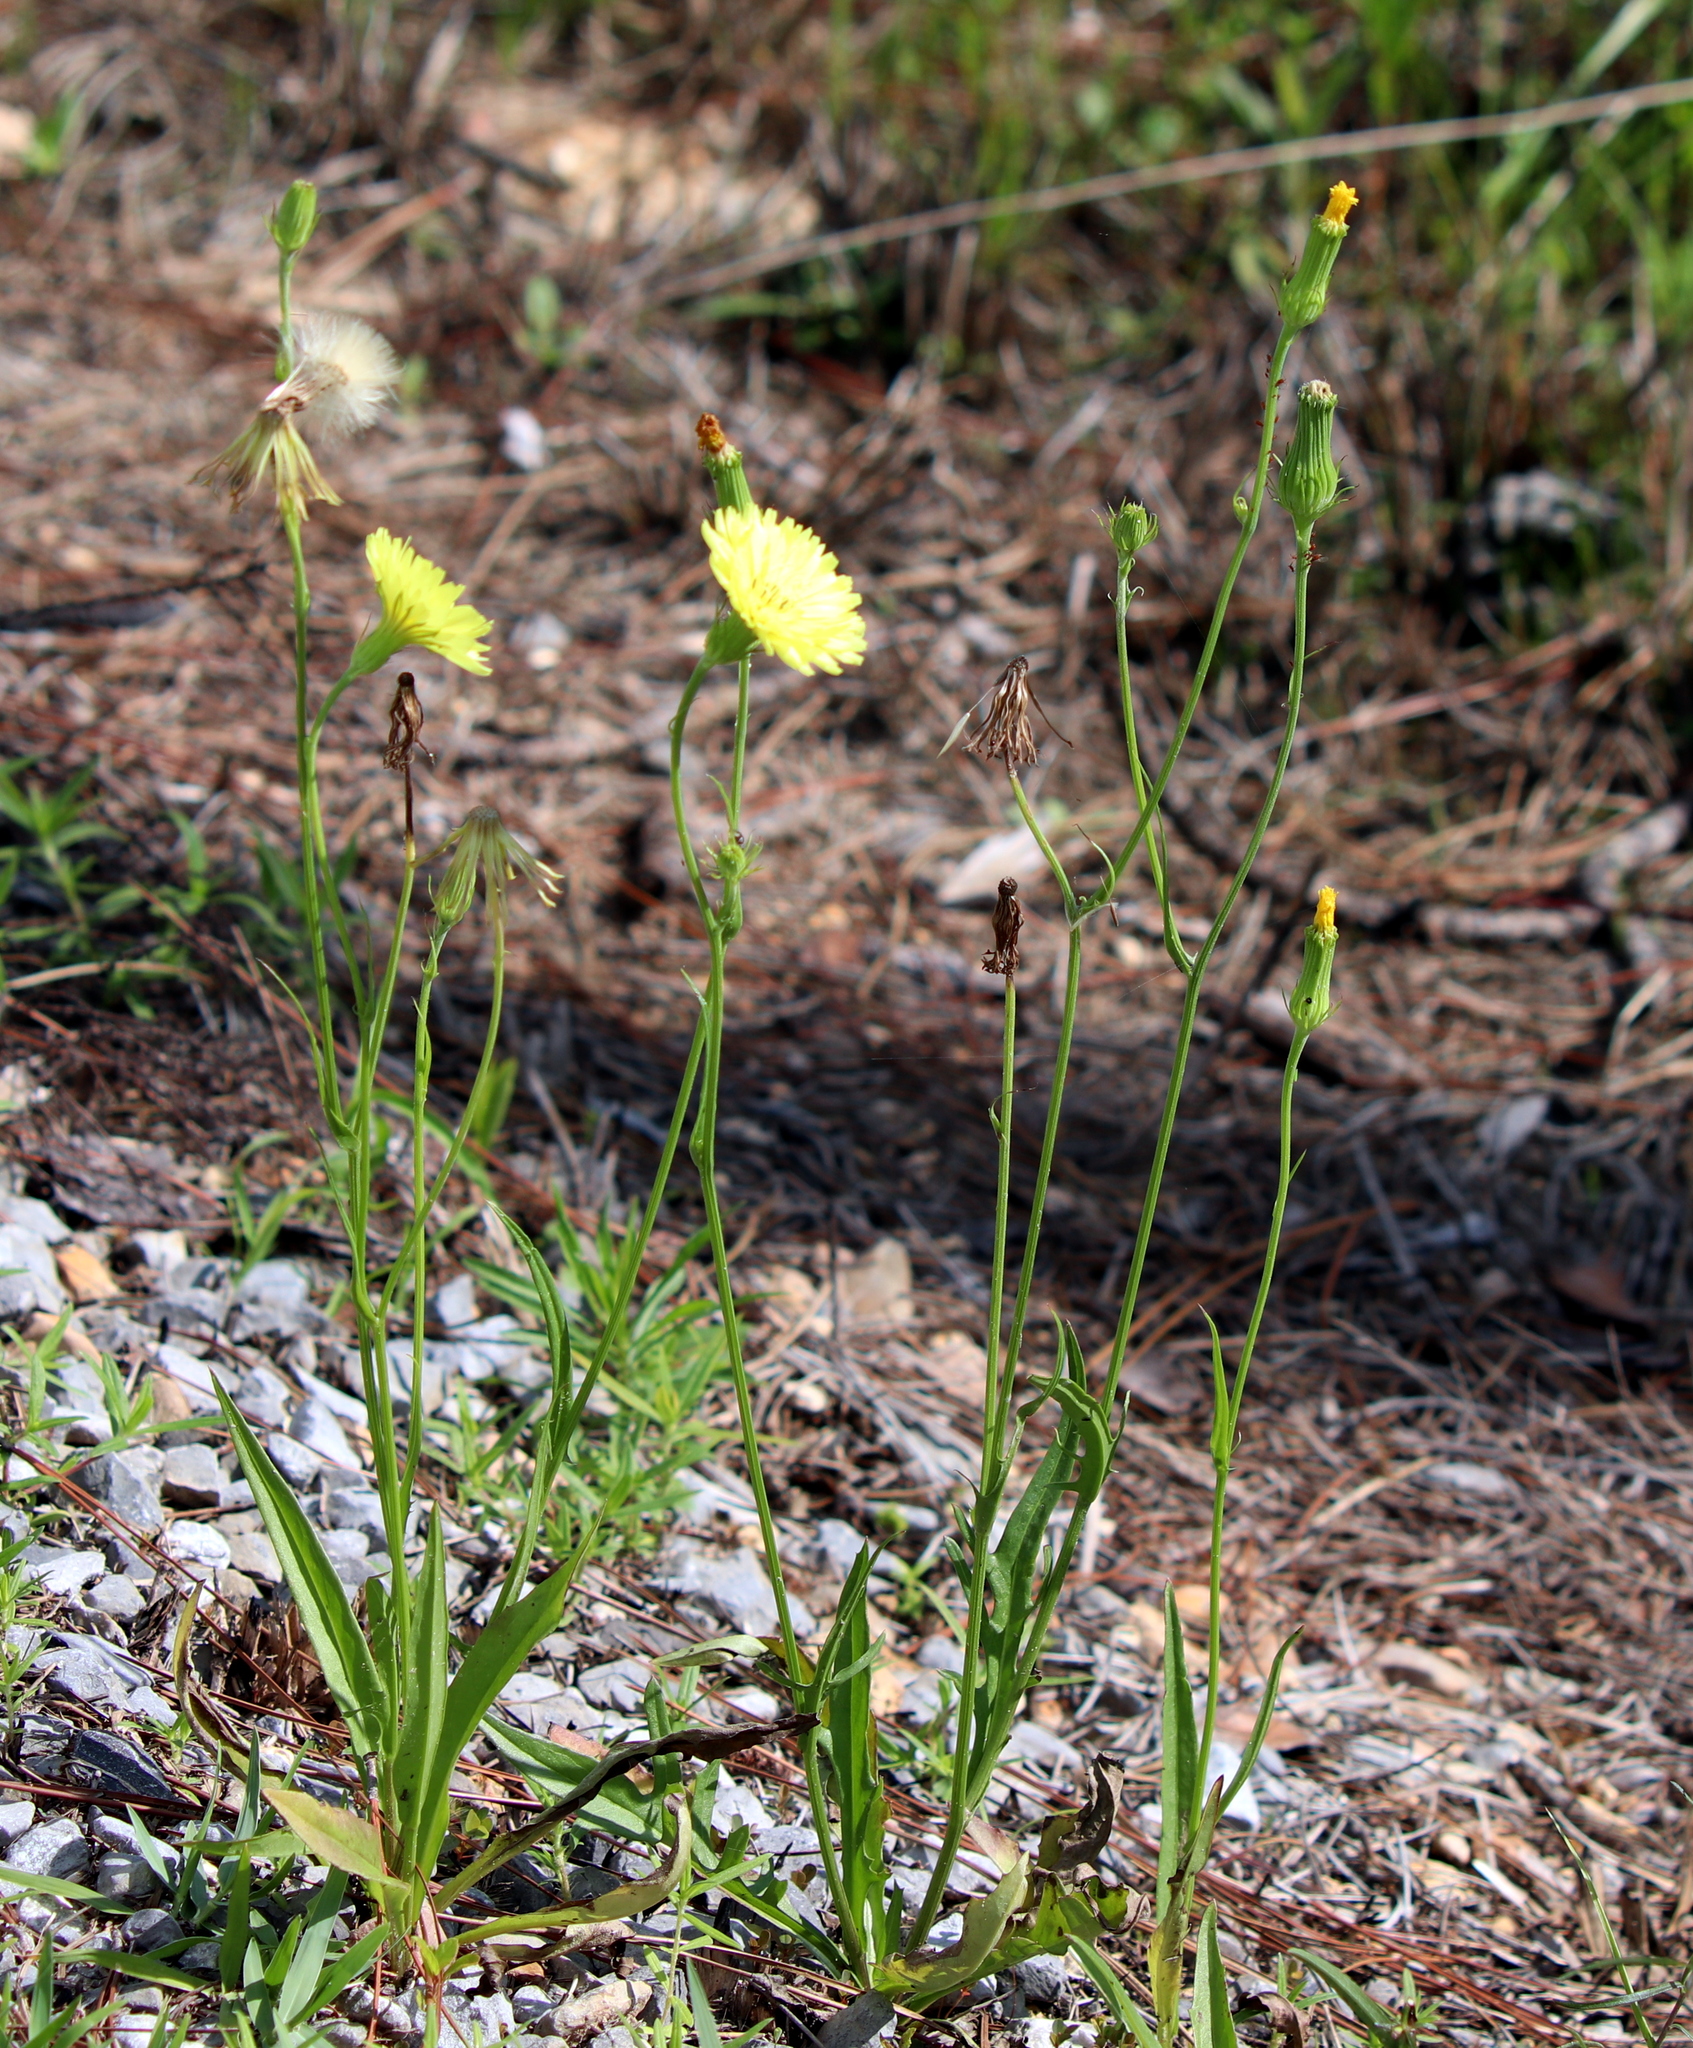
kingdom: Plantae
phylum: Tracheophyta
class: Magnoliopsida
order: Asterales
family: Asteraceae
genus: Pyrrhopappus
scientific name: Pyrrhopappus carolinianus
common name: Carolina desert-chicory
